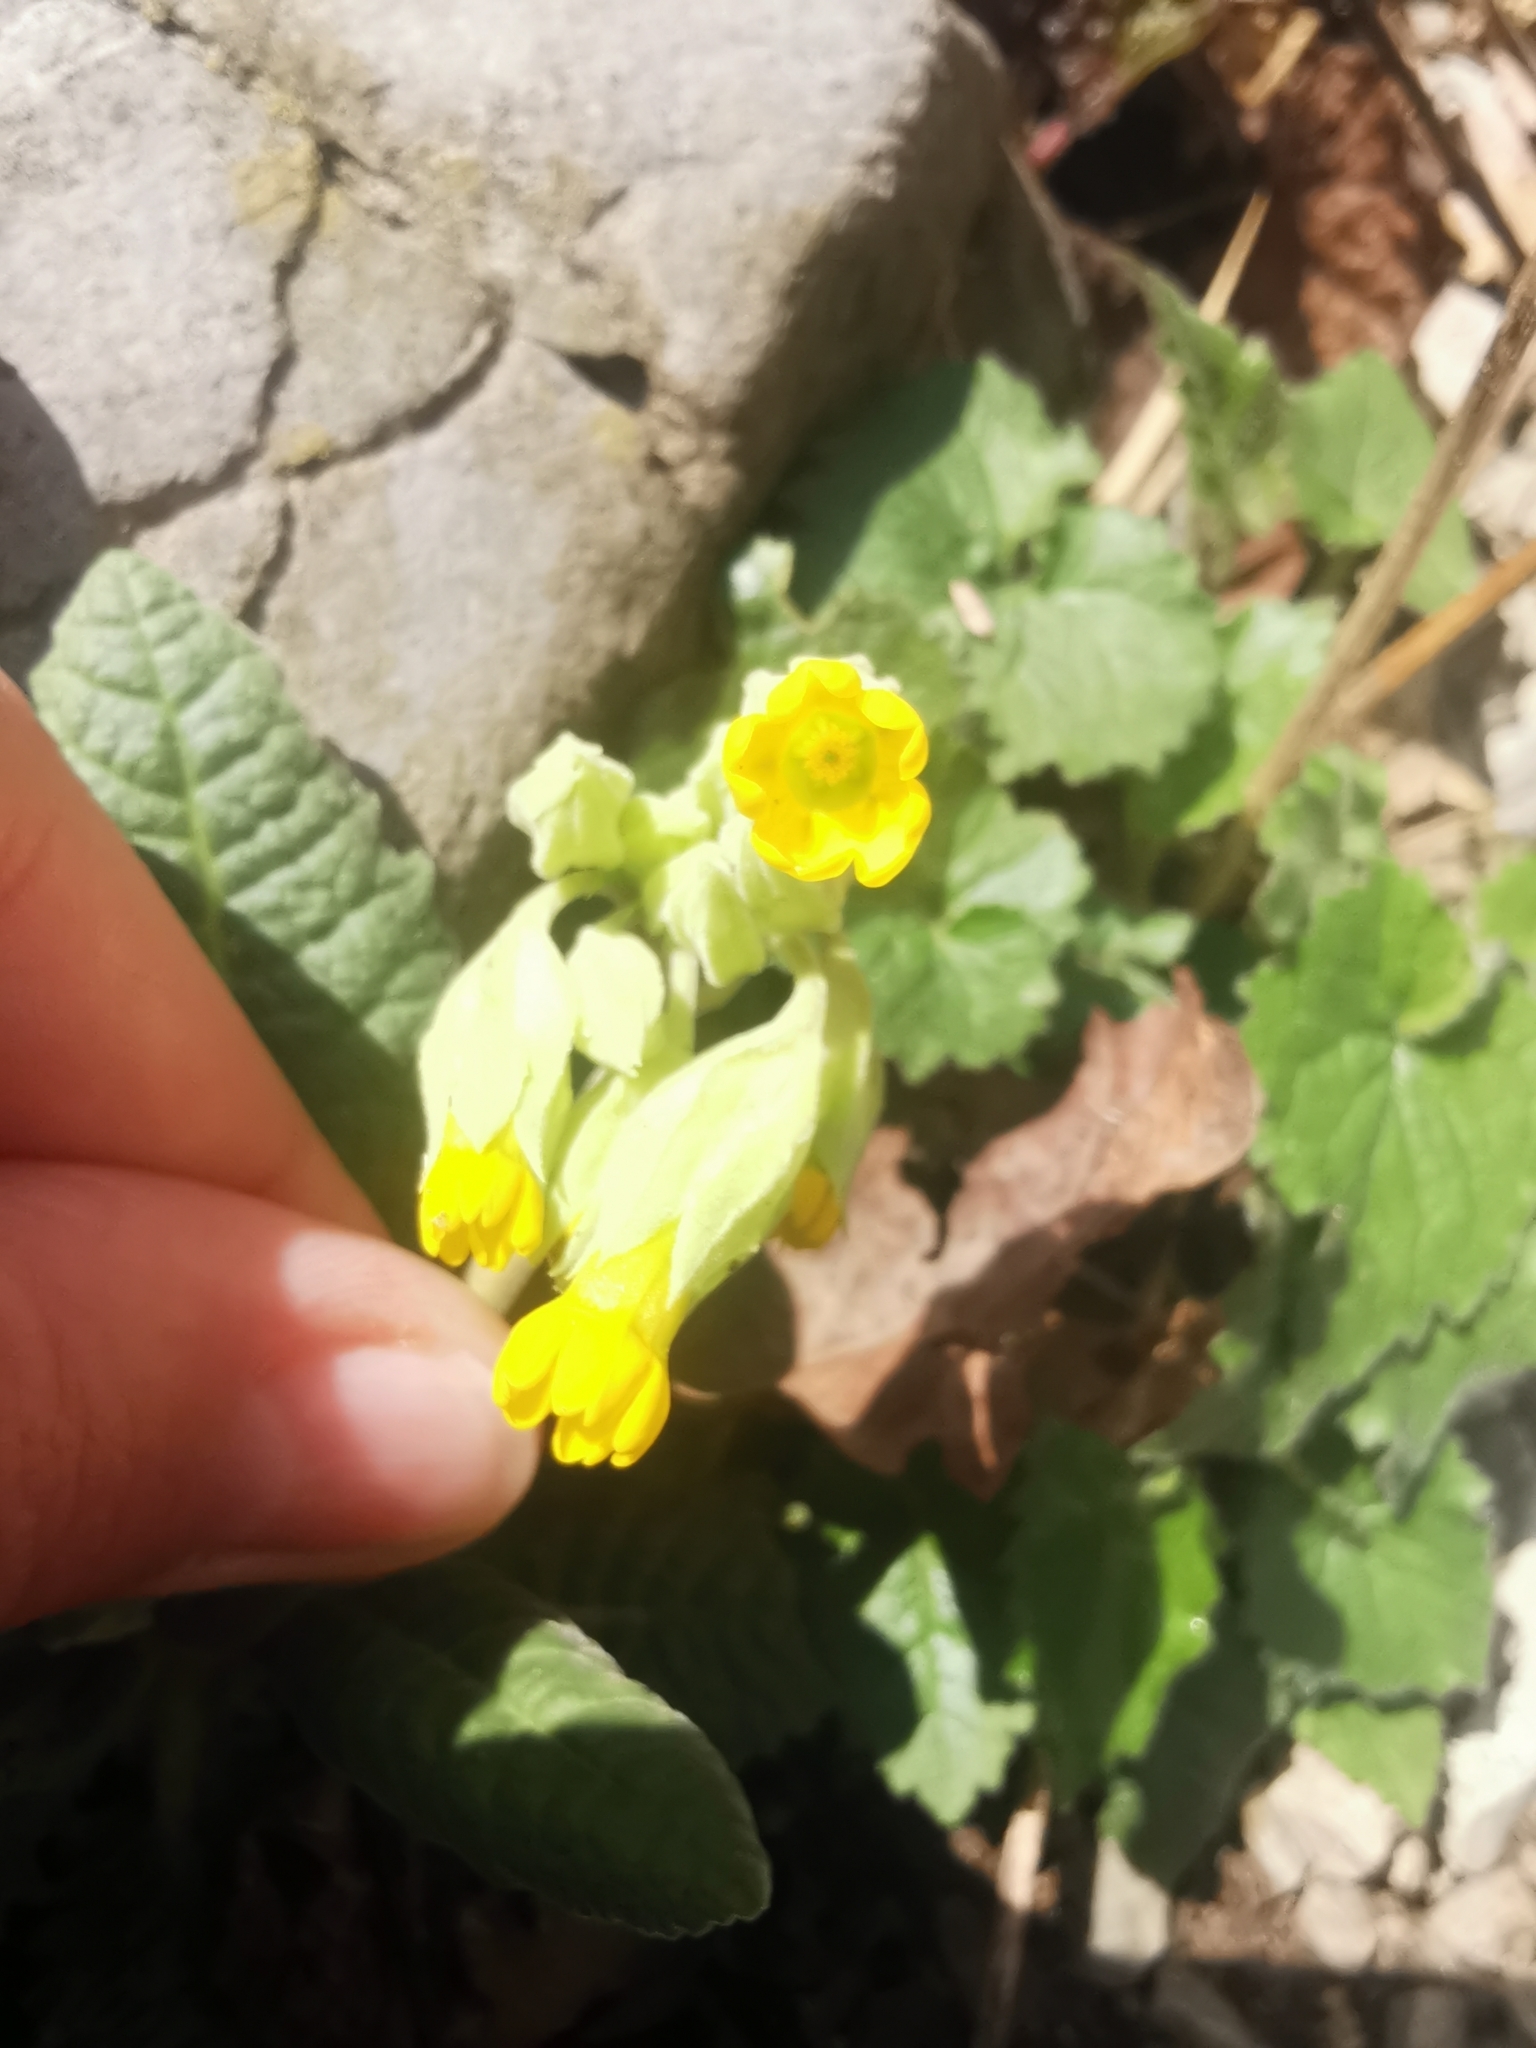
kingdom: Plantae
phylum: Tracheophyta
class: Magnoliopsida
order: Ericales
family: Primulaceae
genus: Primula
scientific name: Primula veris
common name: Cowslip
